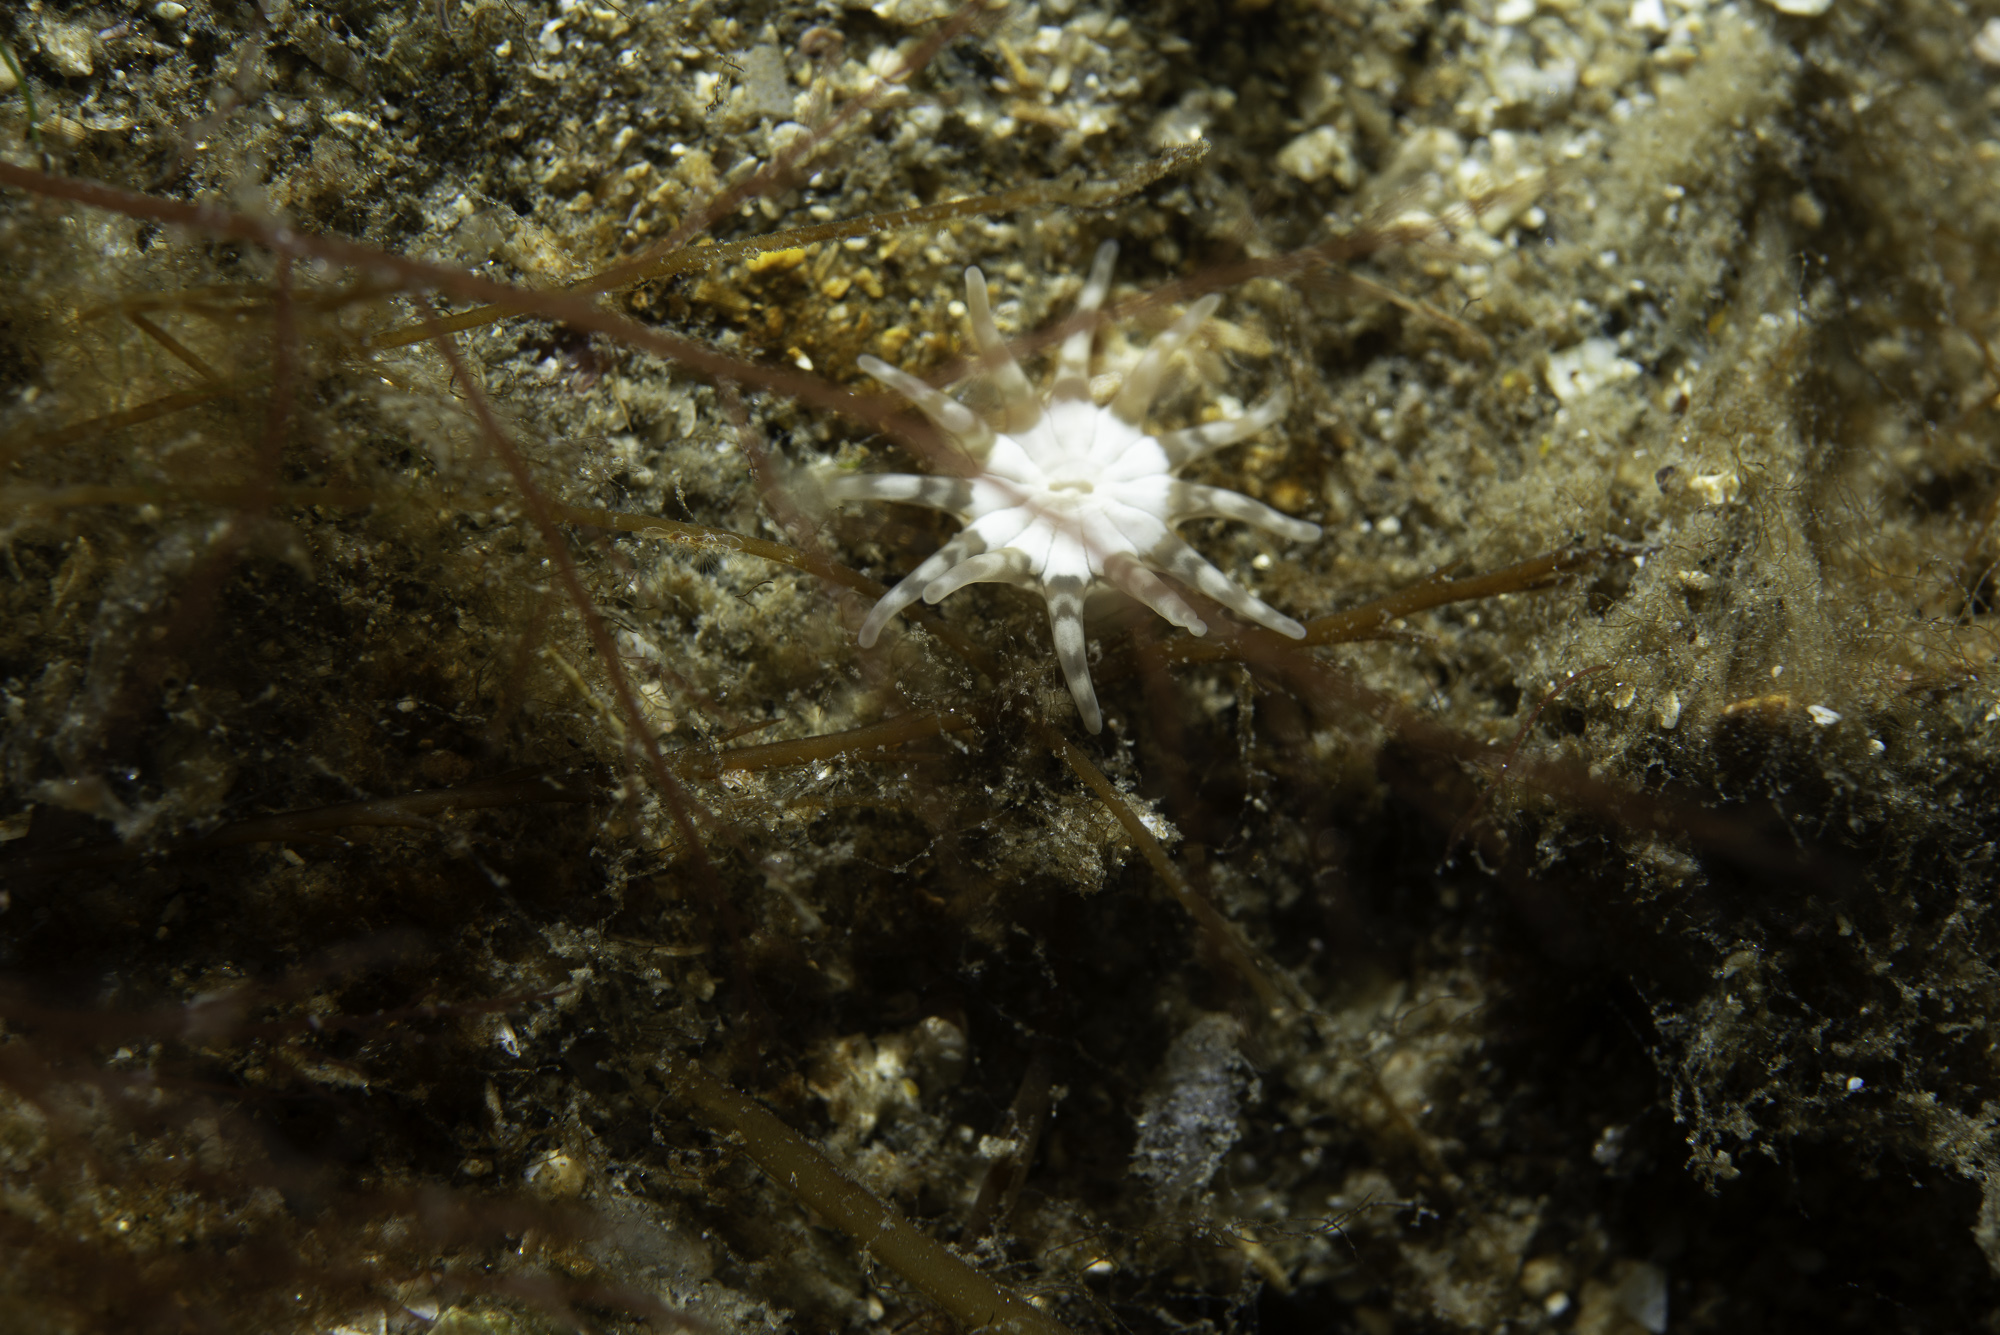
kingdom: Animalia
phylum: Cnidaria
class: Anthozoa
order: Actiniaria
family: Halcampidae
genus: Halcampa
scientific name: Halcampa chrysanthellum
